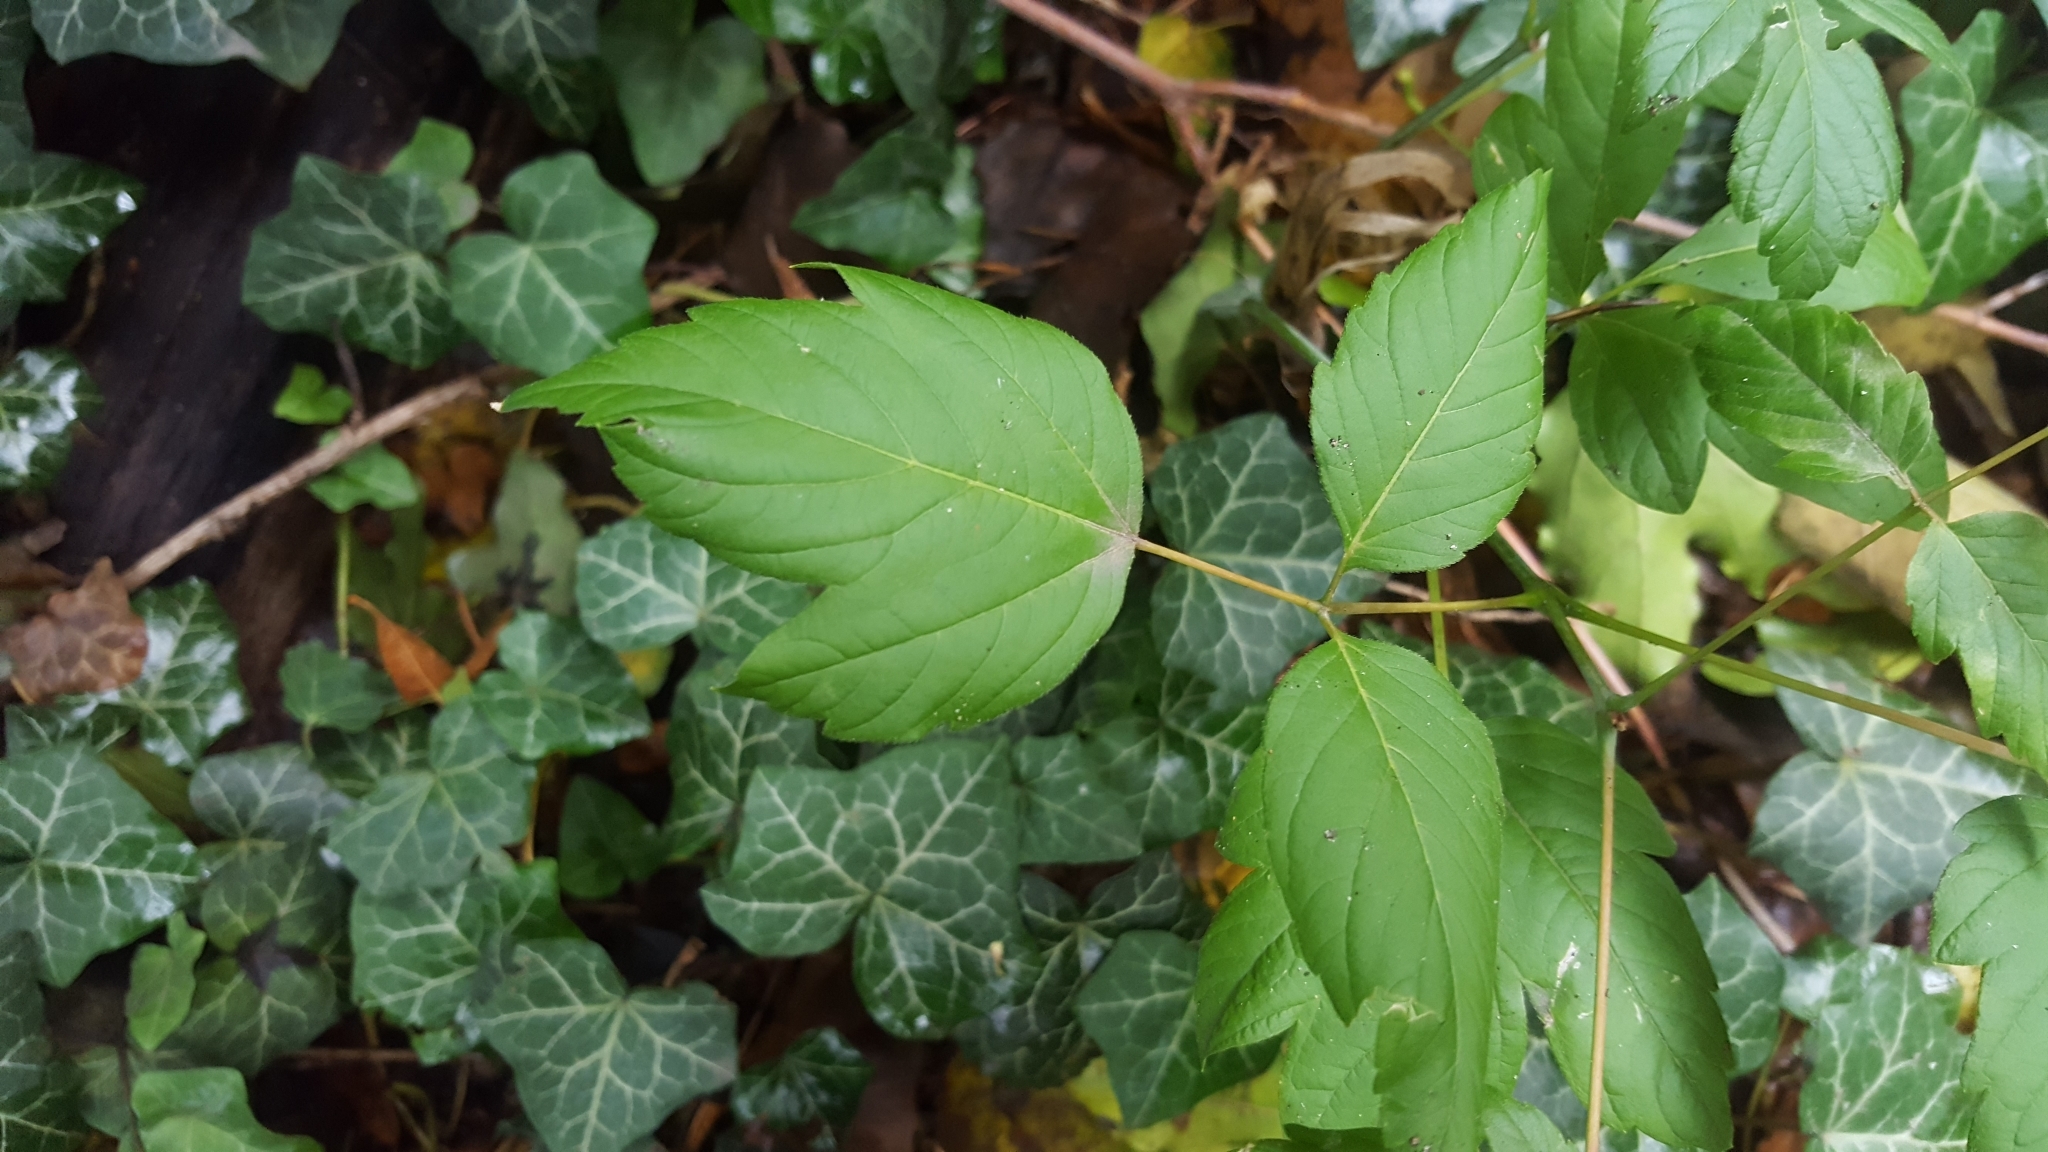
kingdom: Plantae
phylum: Tracheophyta
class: Magnoliopsida
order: Sapindales
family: Sapindaceae
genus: Acer
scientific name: Acer negundo
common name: Ashleaf maple
